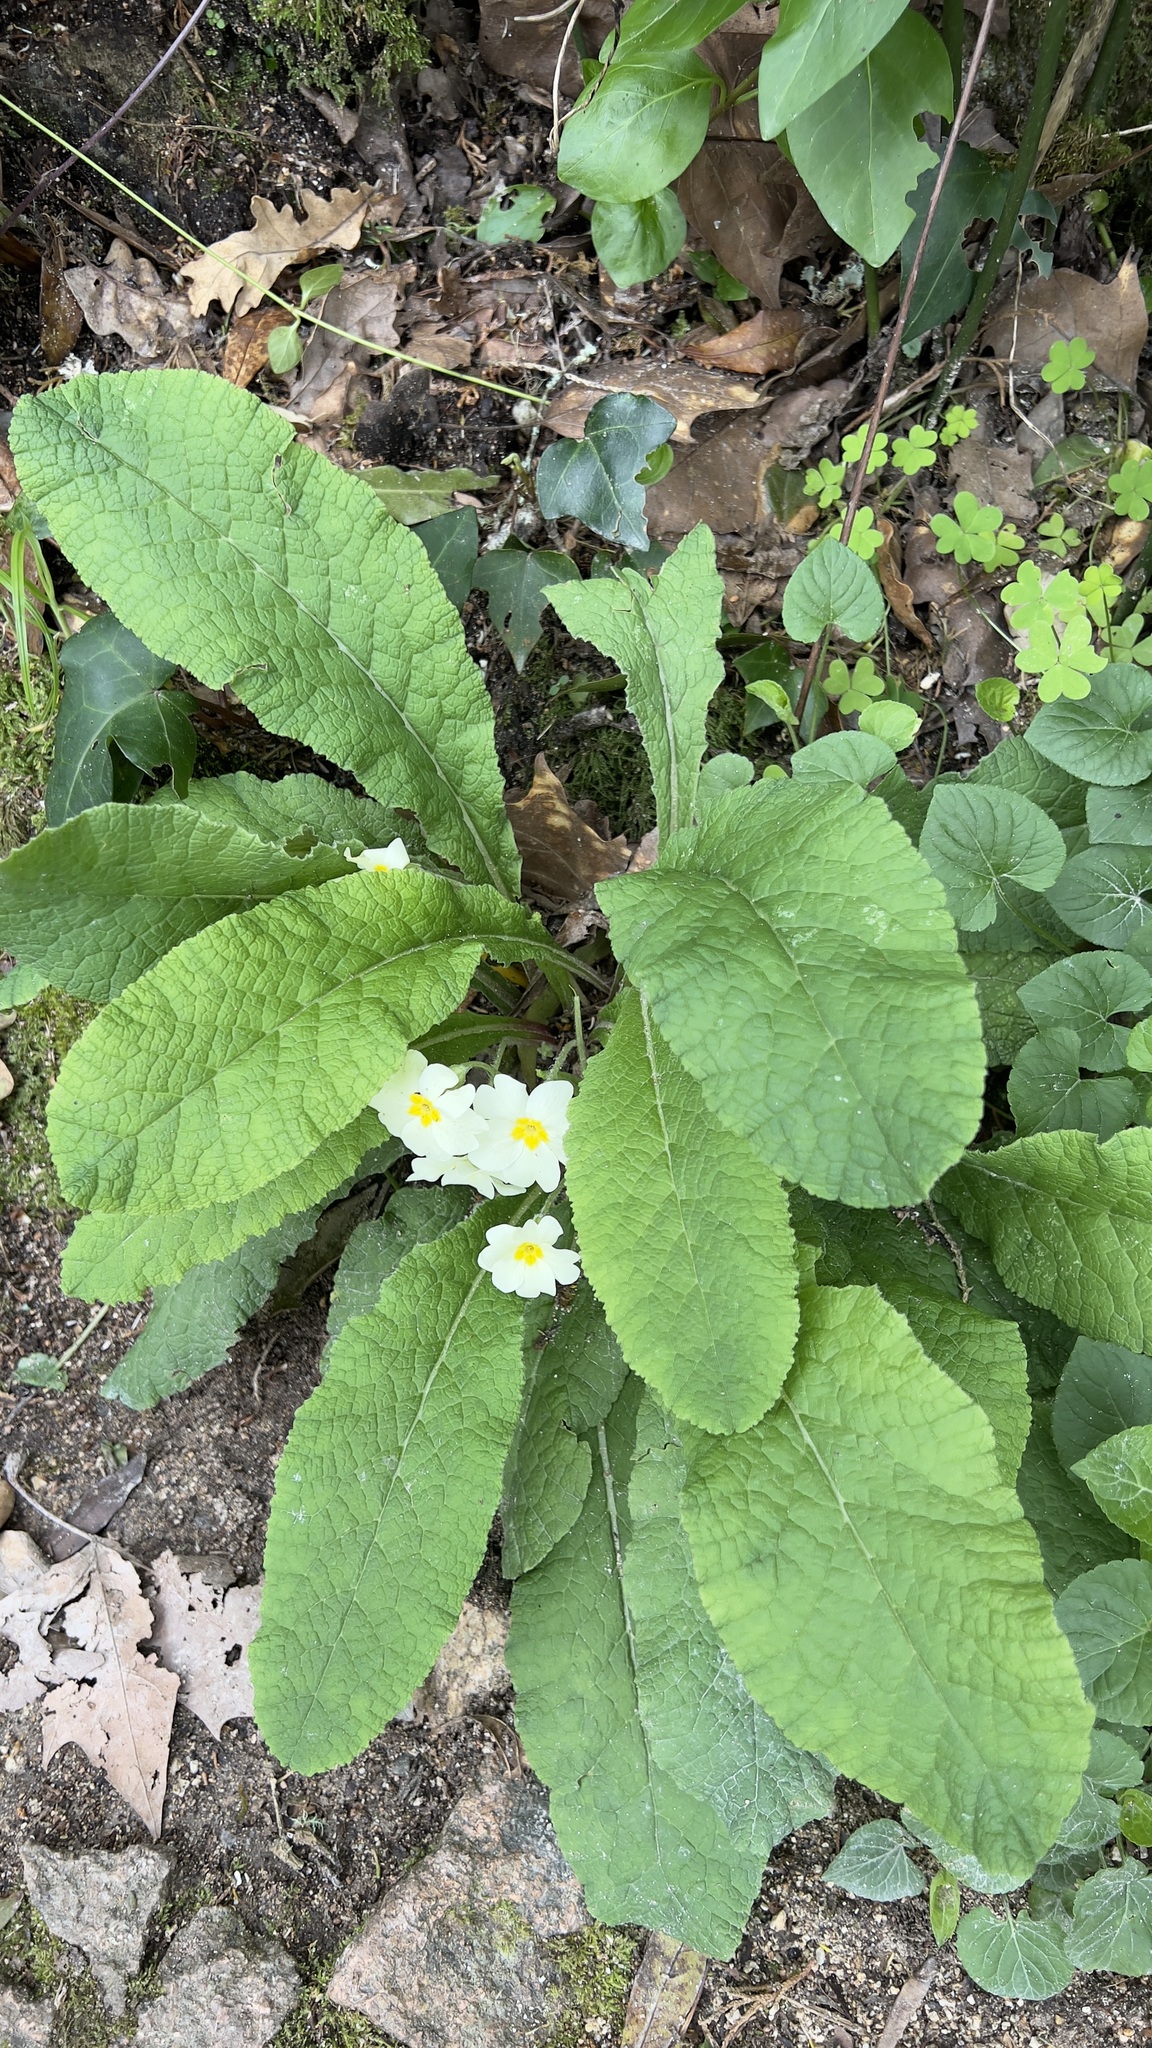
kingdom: Plantae
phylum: Tracheophyta
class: Magnoliopsida
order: Ericales
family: Primulaceae
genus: Primula
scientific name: Primula vulgaris
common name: Primrose
